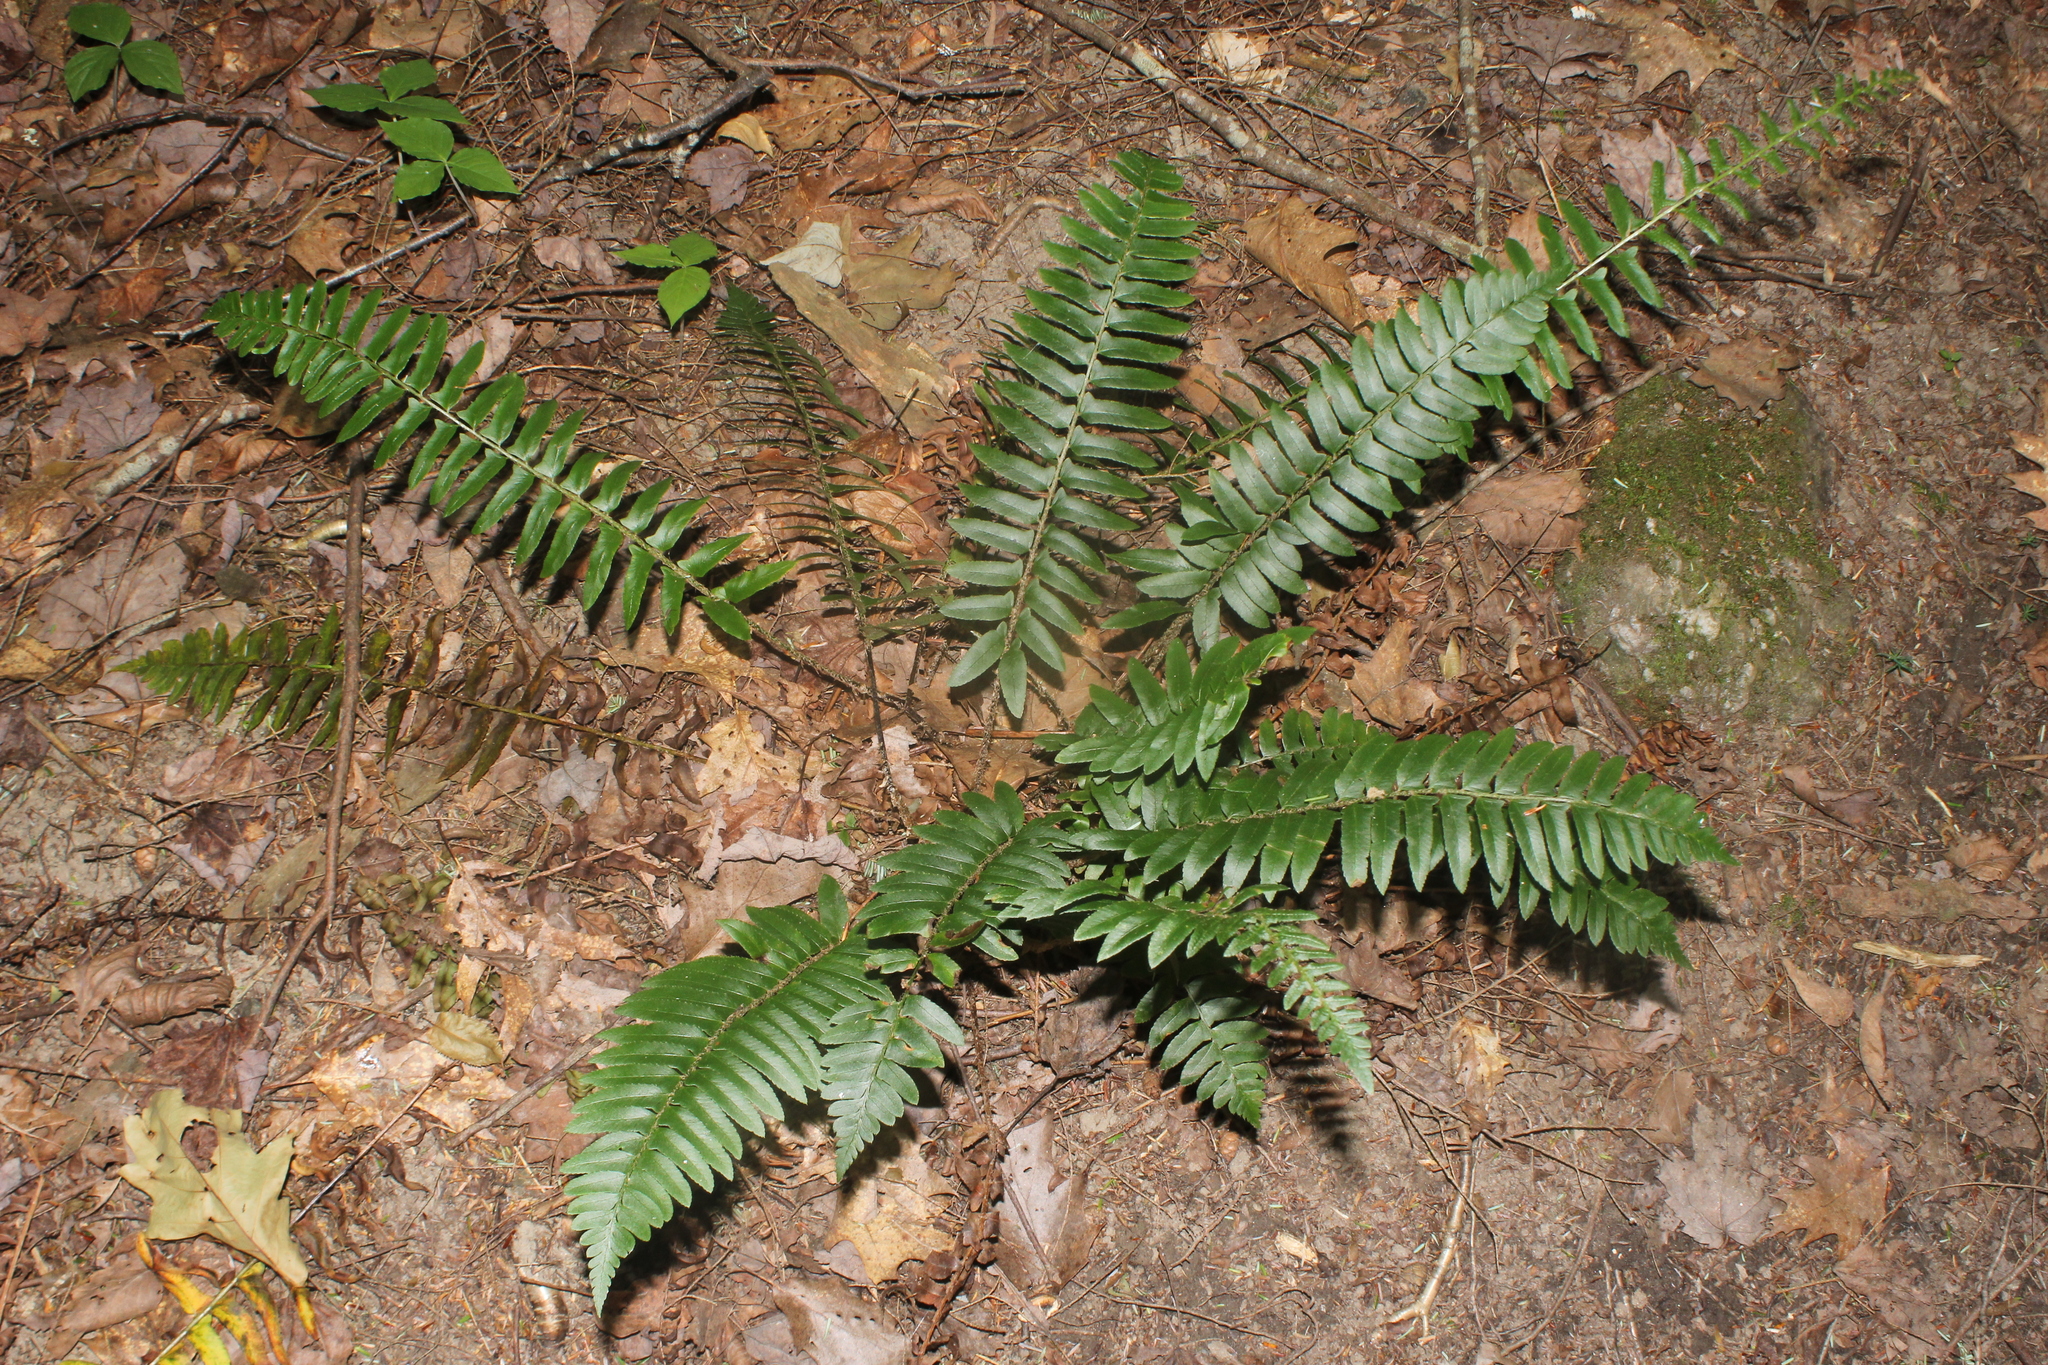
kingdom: Plantae
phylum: Tracheophyta
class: Polypodiopsida
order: Polypodiales
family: Dryopteridaceae
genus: Polystichum
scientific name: Polystichum acrostichoides
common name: Christmas fern
